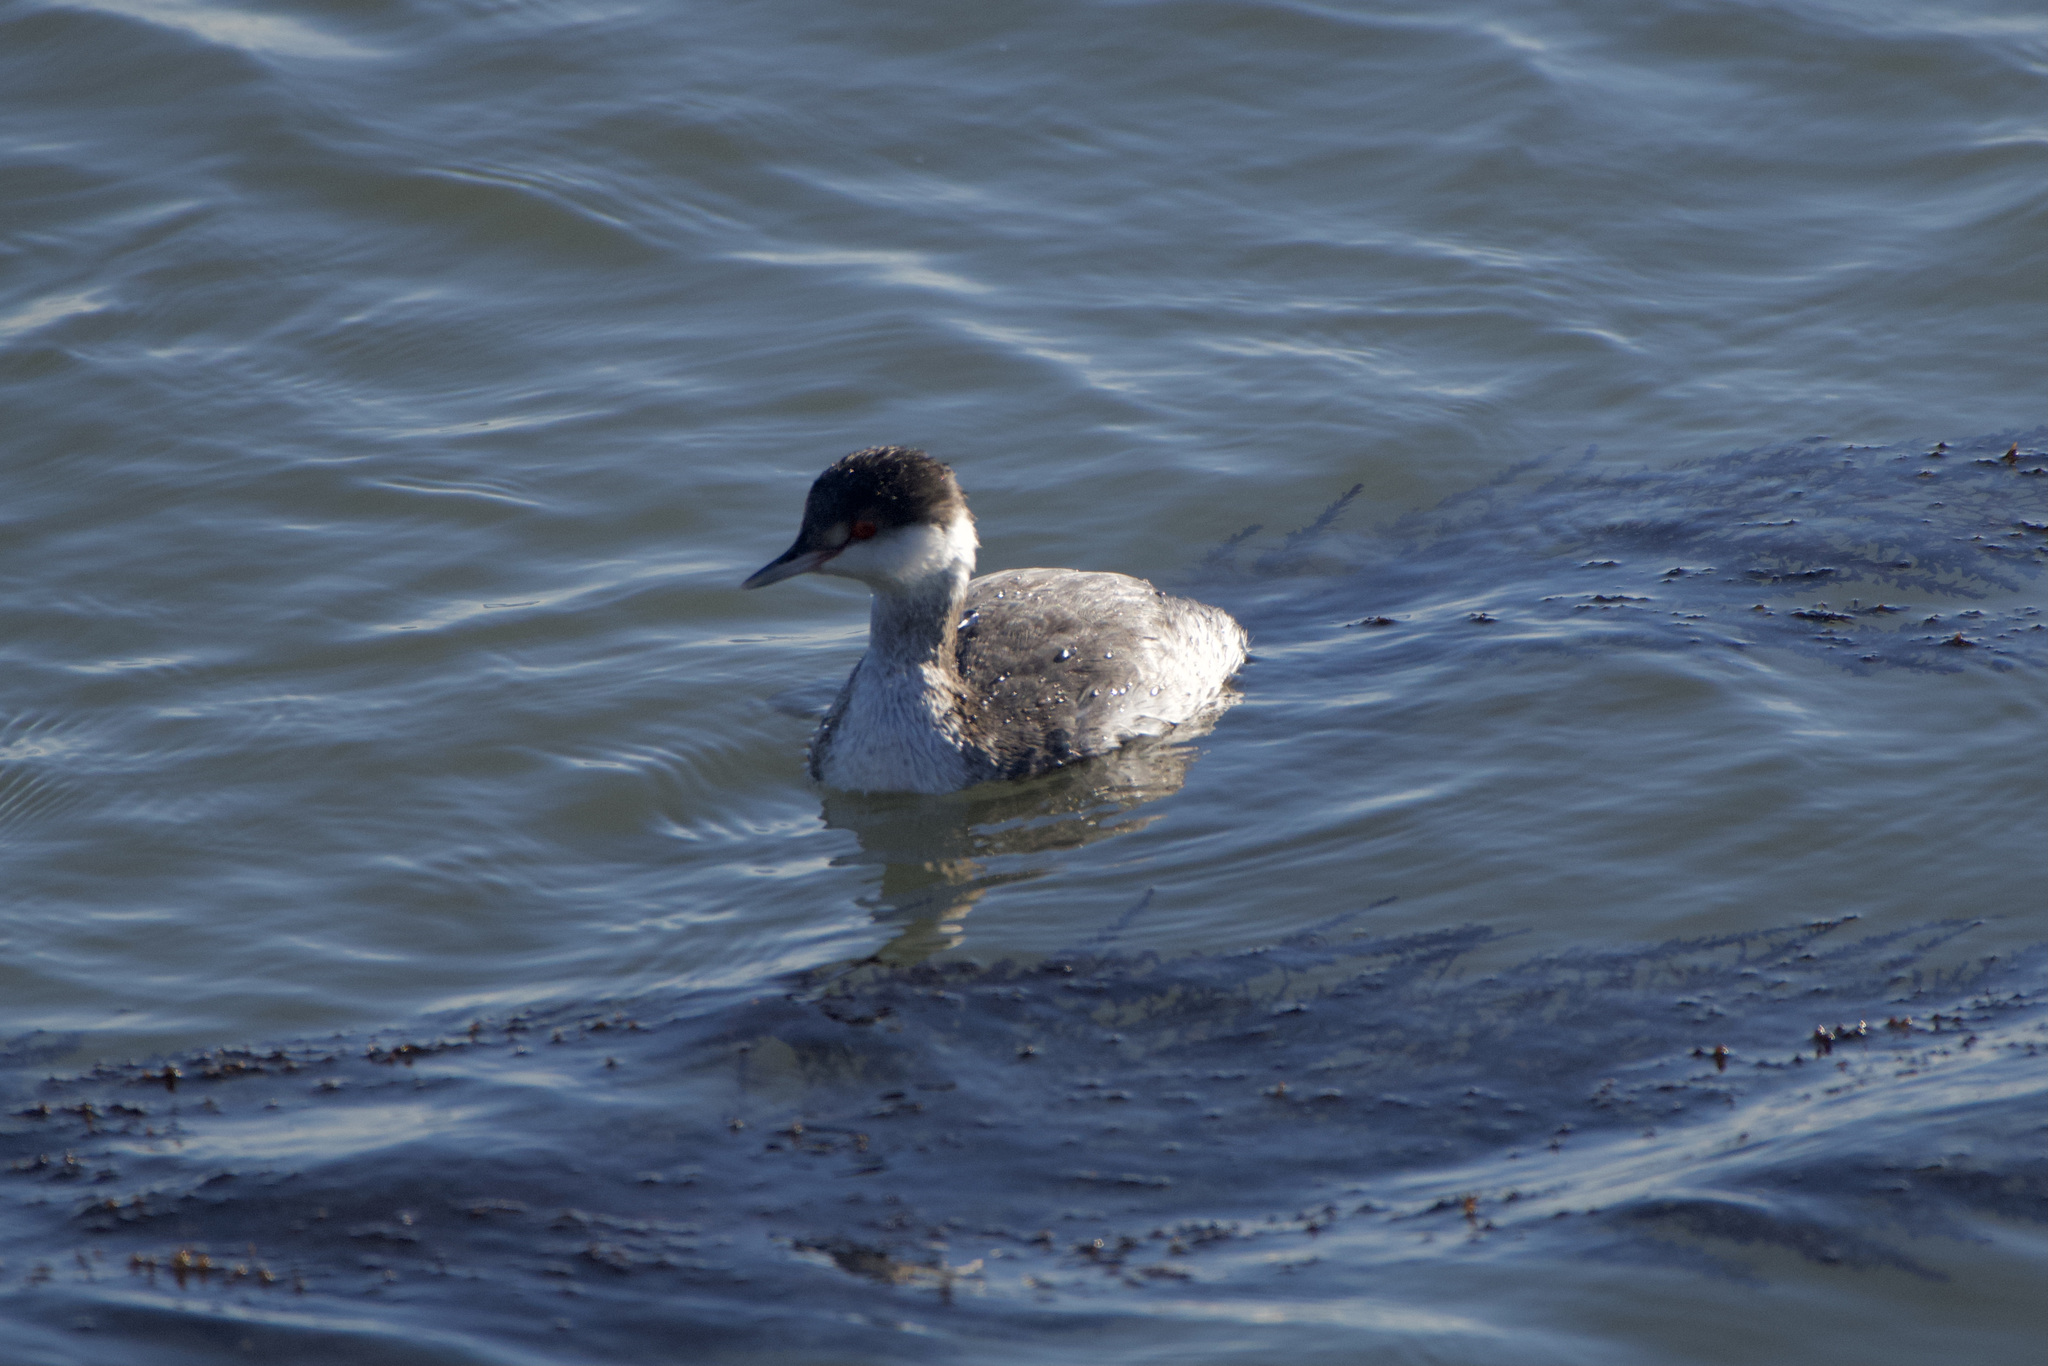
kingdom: Animalia
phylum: Chordata
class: Aves
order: Podicipediformes
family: Podicipedidae
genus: Podiceps
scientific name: Podiceps auritus
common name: Horned grebe
